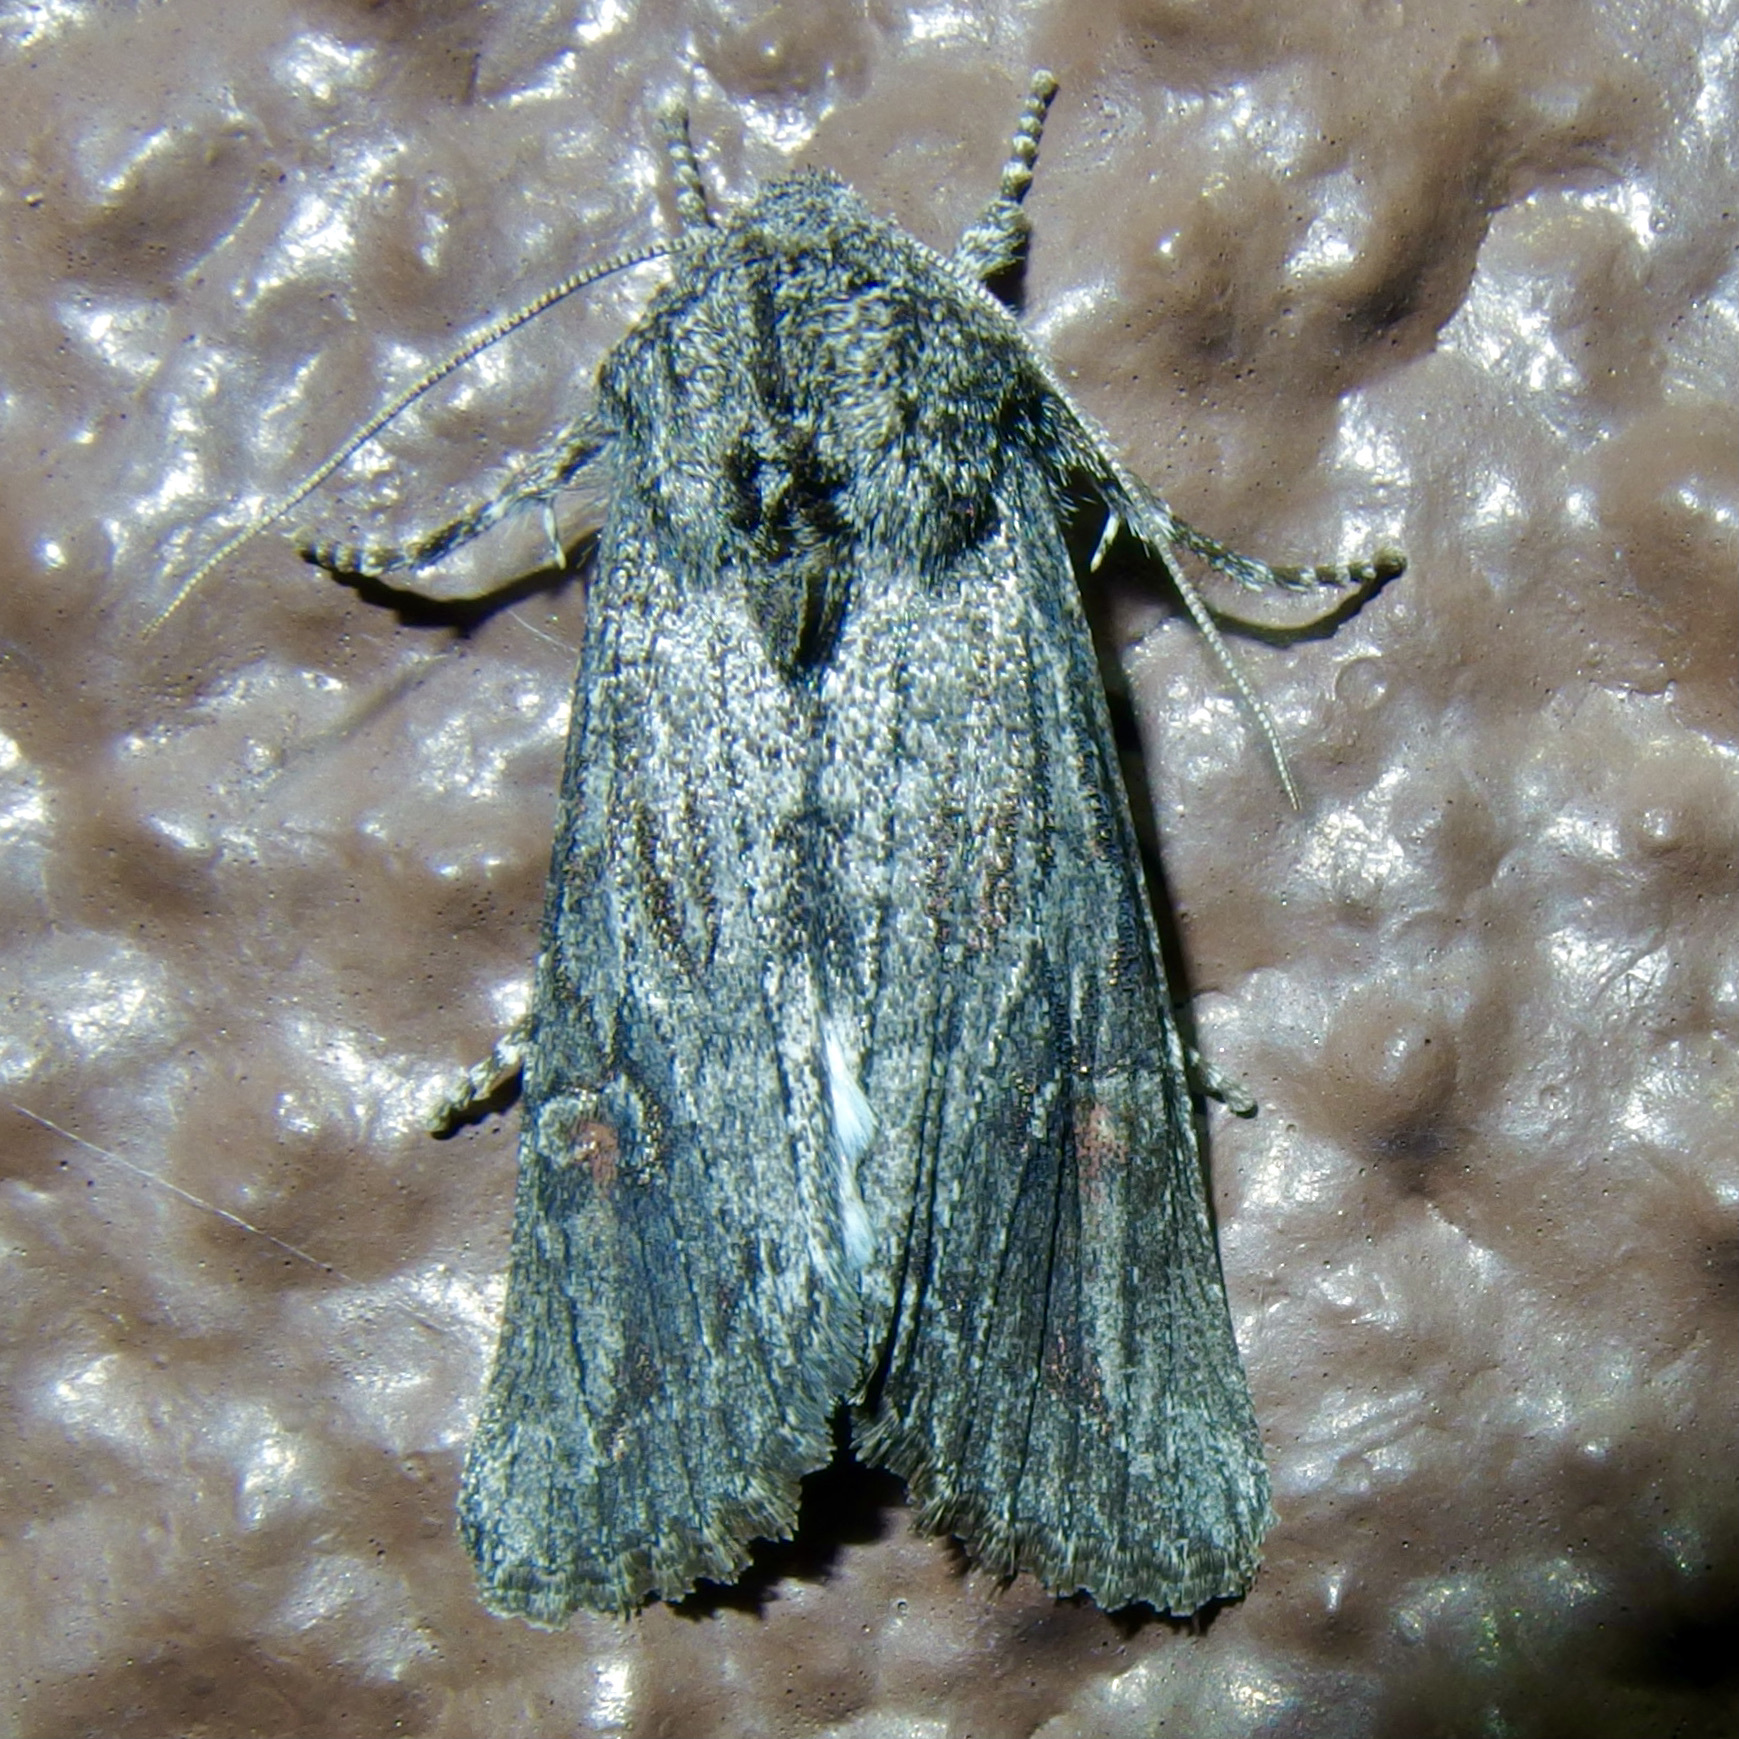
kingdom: Animalia
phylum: Arthropoda
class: Insecta
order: Lepidoptera
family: Noctuidae
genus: Egira
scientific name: Egira curialis
